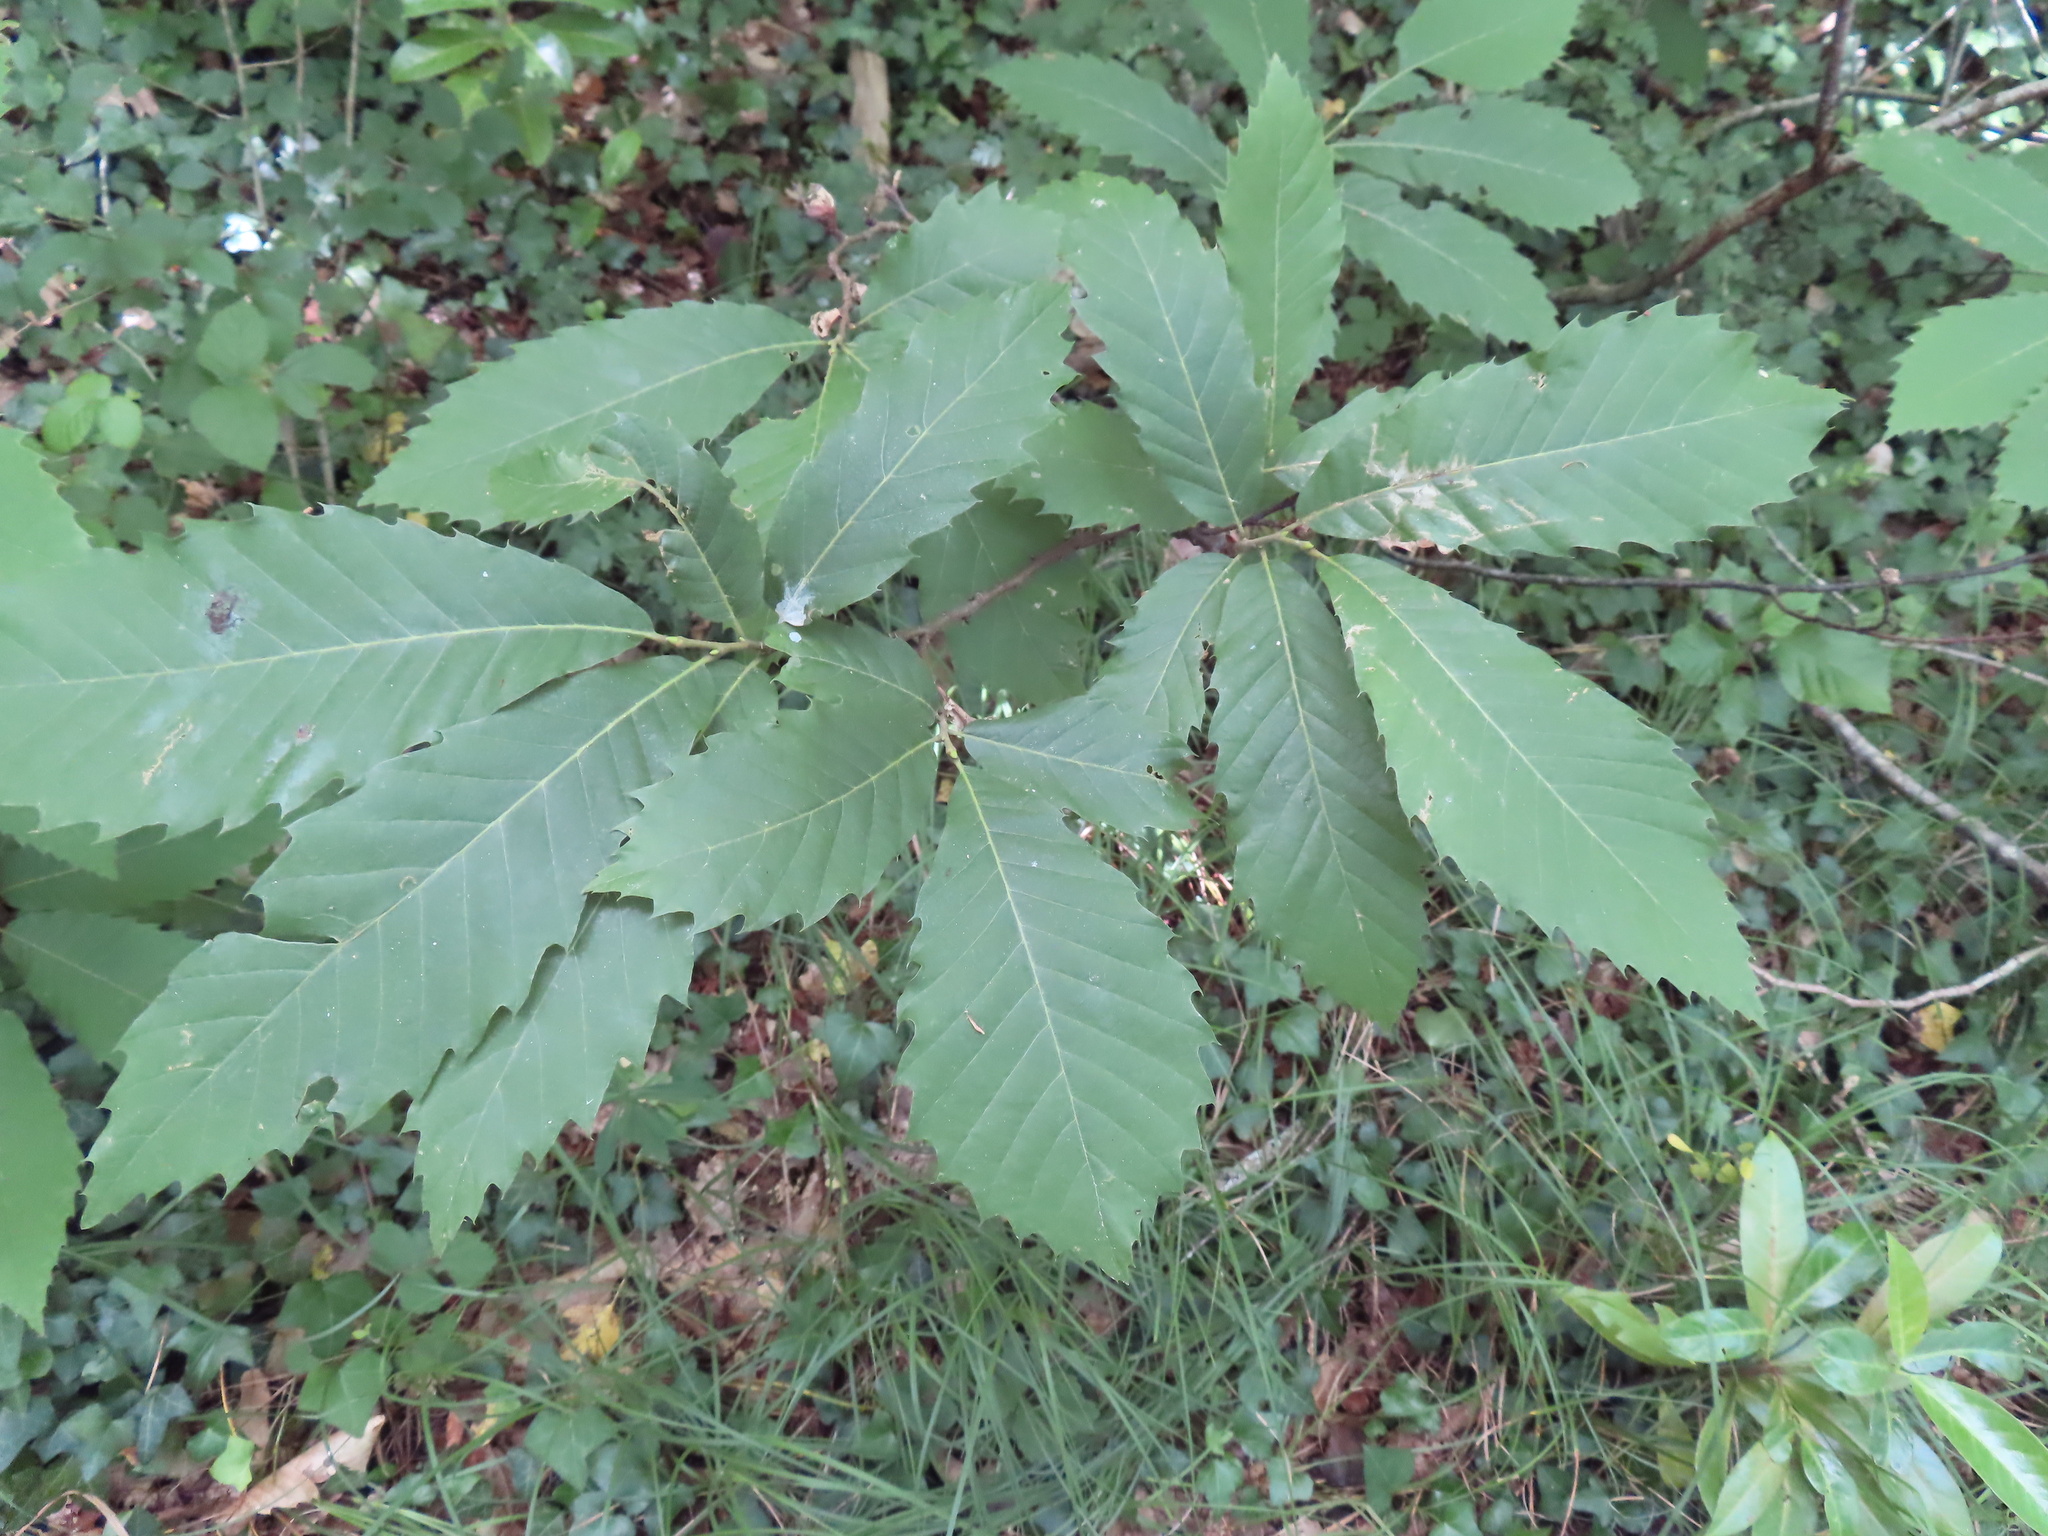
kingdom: Plantae
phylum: Tracheophyta
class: Magnoliopsida
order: Fagales
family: Fagaceae
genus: Castanea
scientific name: Castanea sativa
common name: Sweet chestnut
